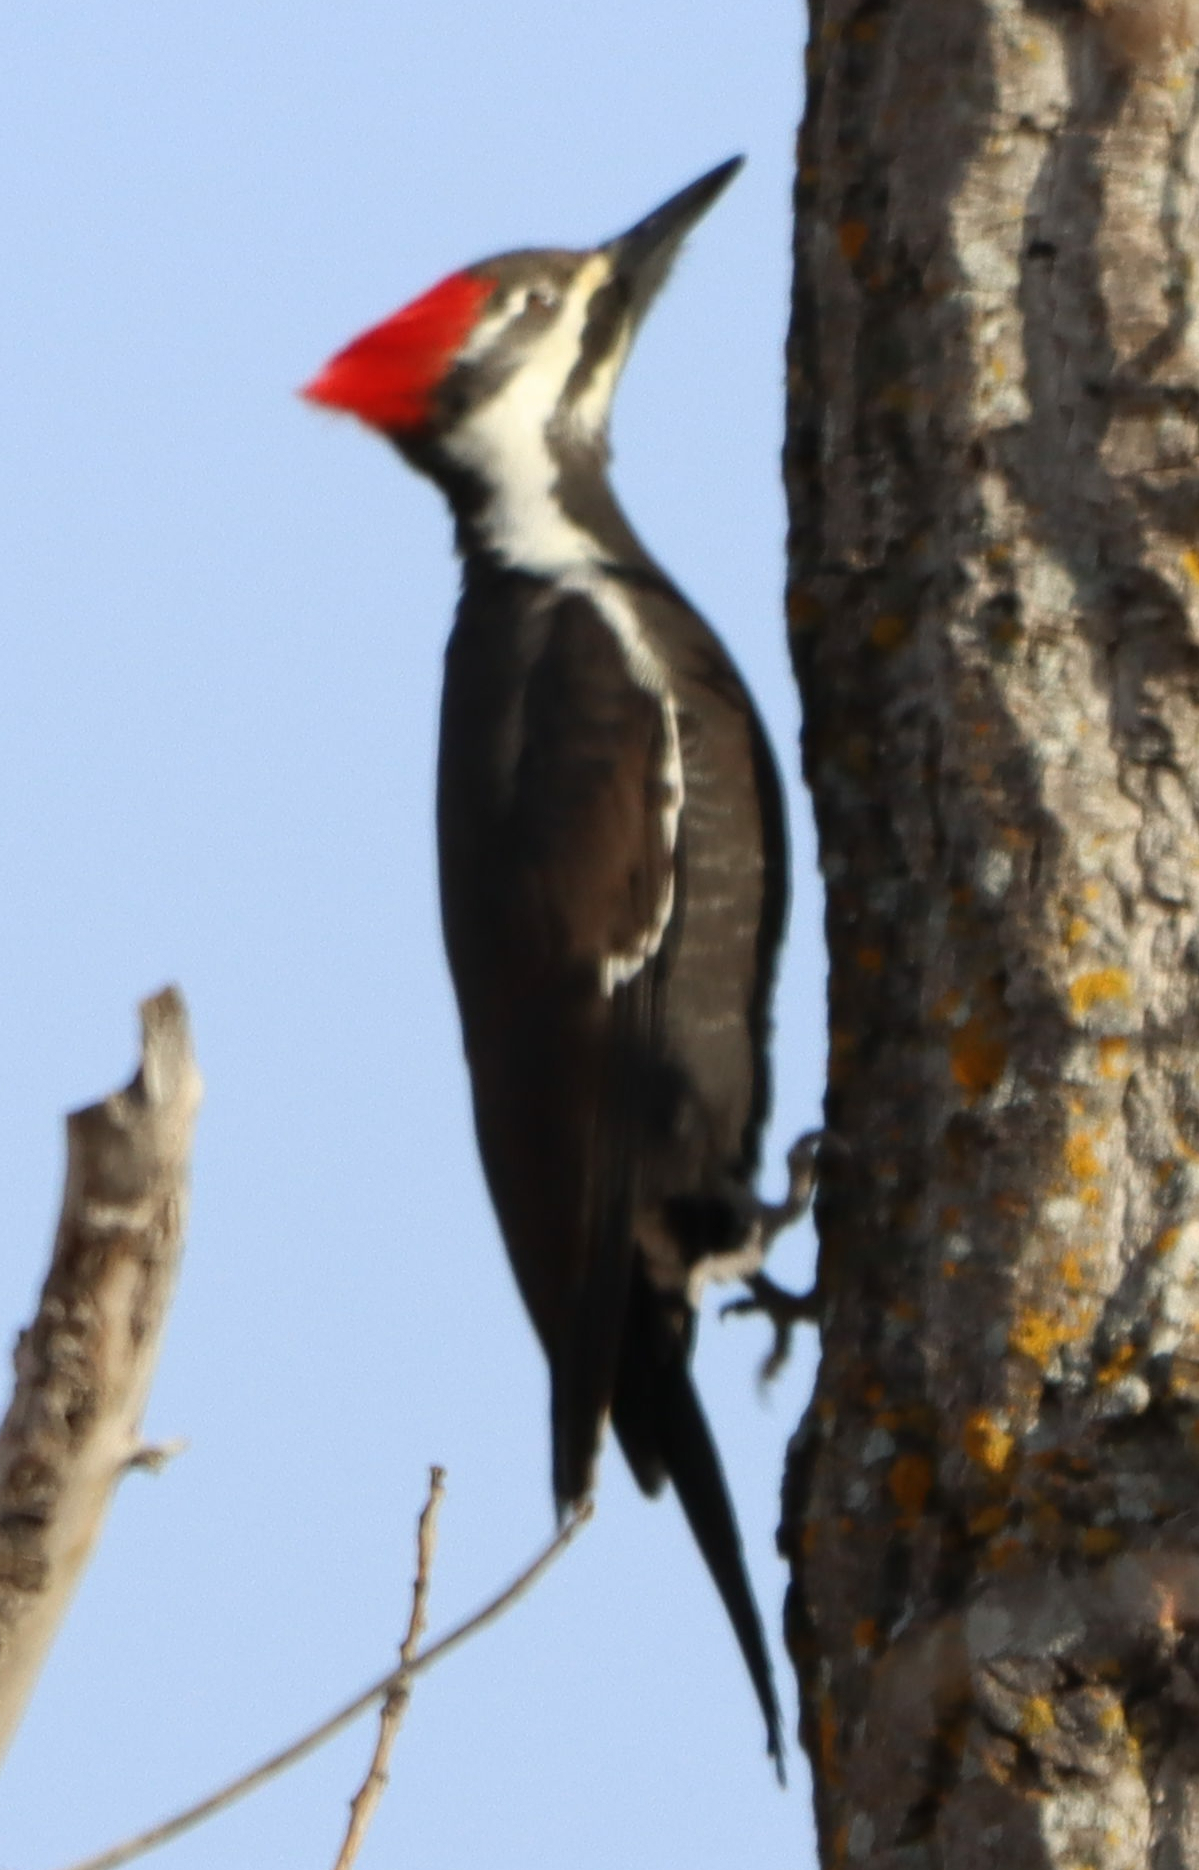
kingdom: Animalia
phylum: Chordata
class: Aves
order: Piciformes
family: Picidae
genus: Dryocopus
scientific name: Dryocopus pileatus
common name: Pileated woodpecker
